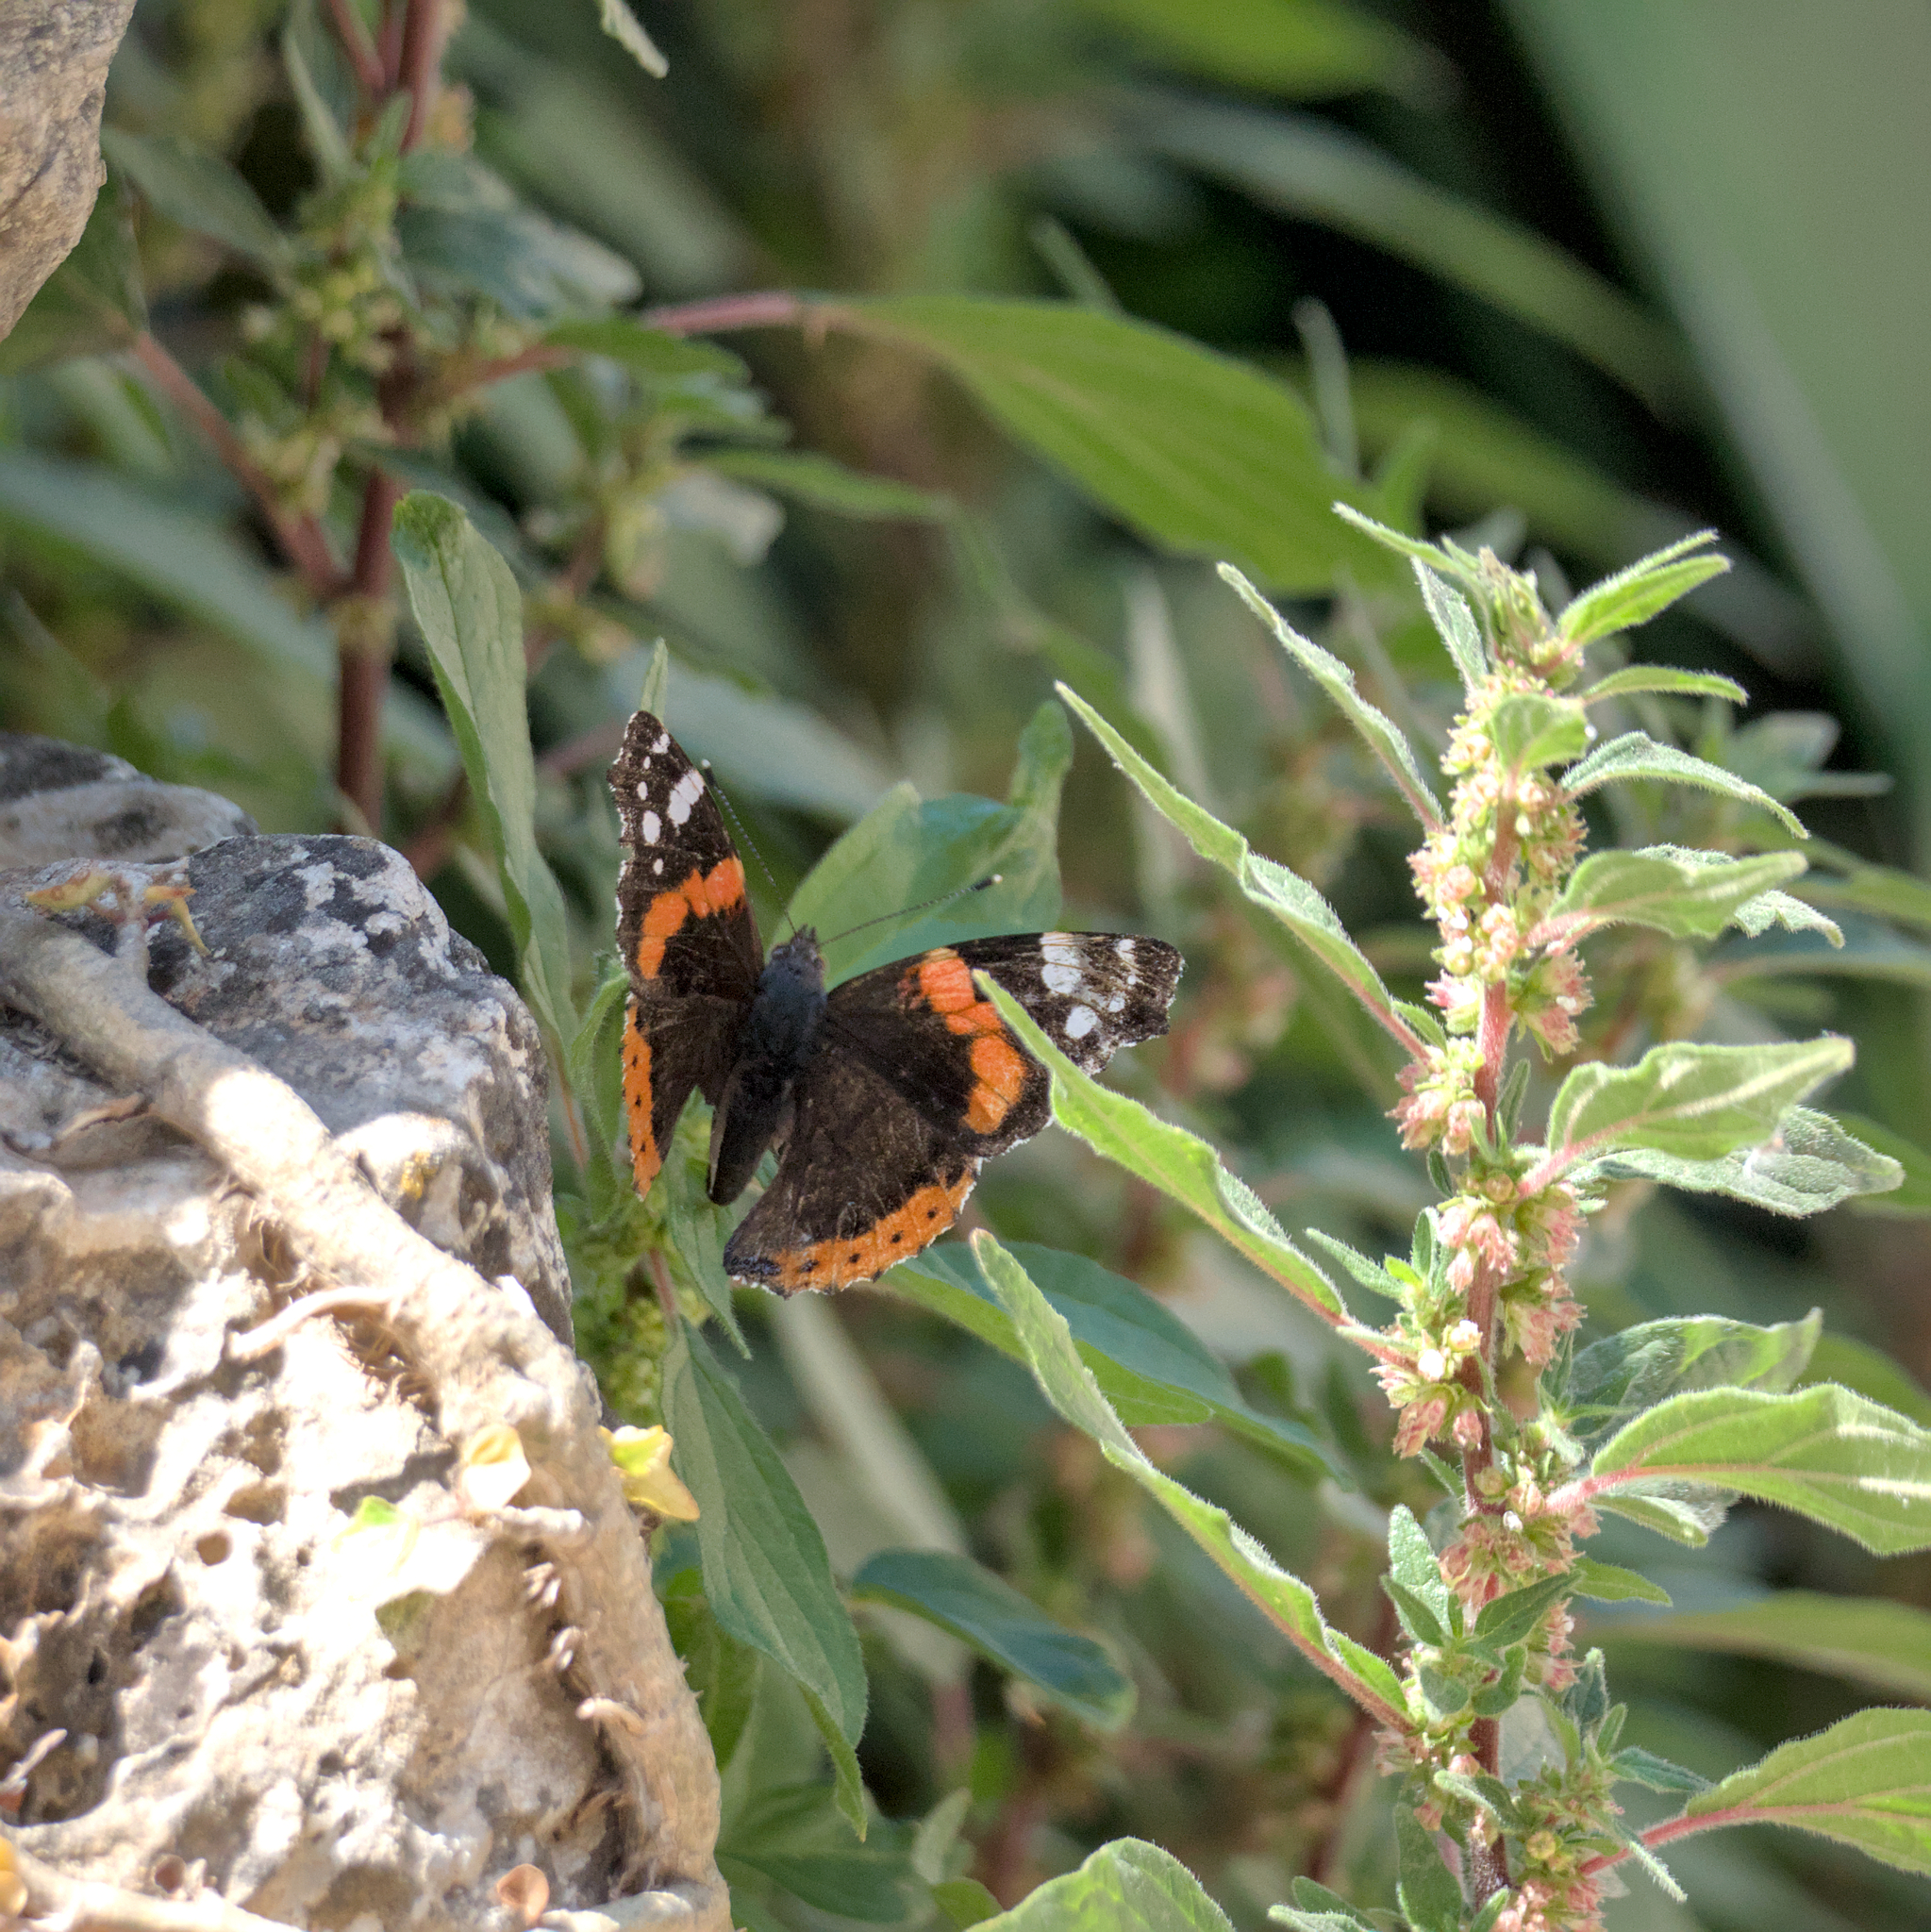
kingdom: Animalia
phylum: Arthropoda
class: Insecta
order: Lepidoptera
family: Nymphalidae
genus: Vanessa
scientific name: Vanessa atalanta
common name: Red admiral
